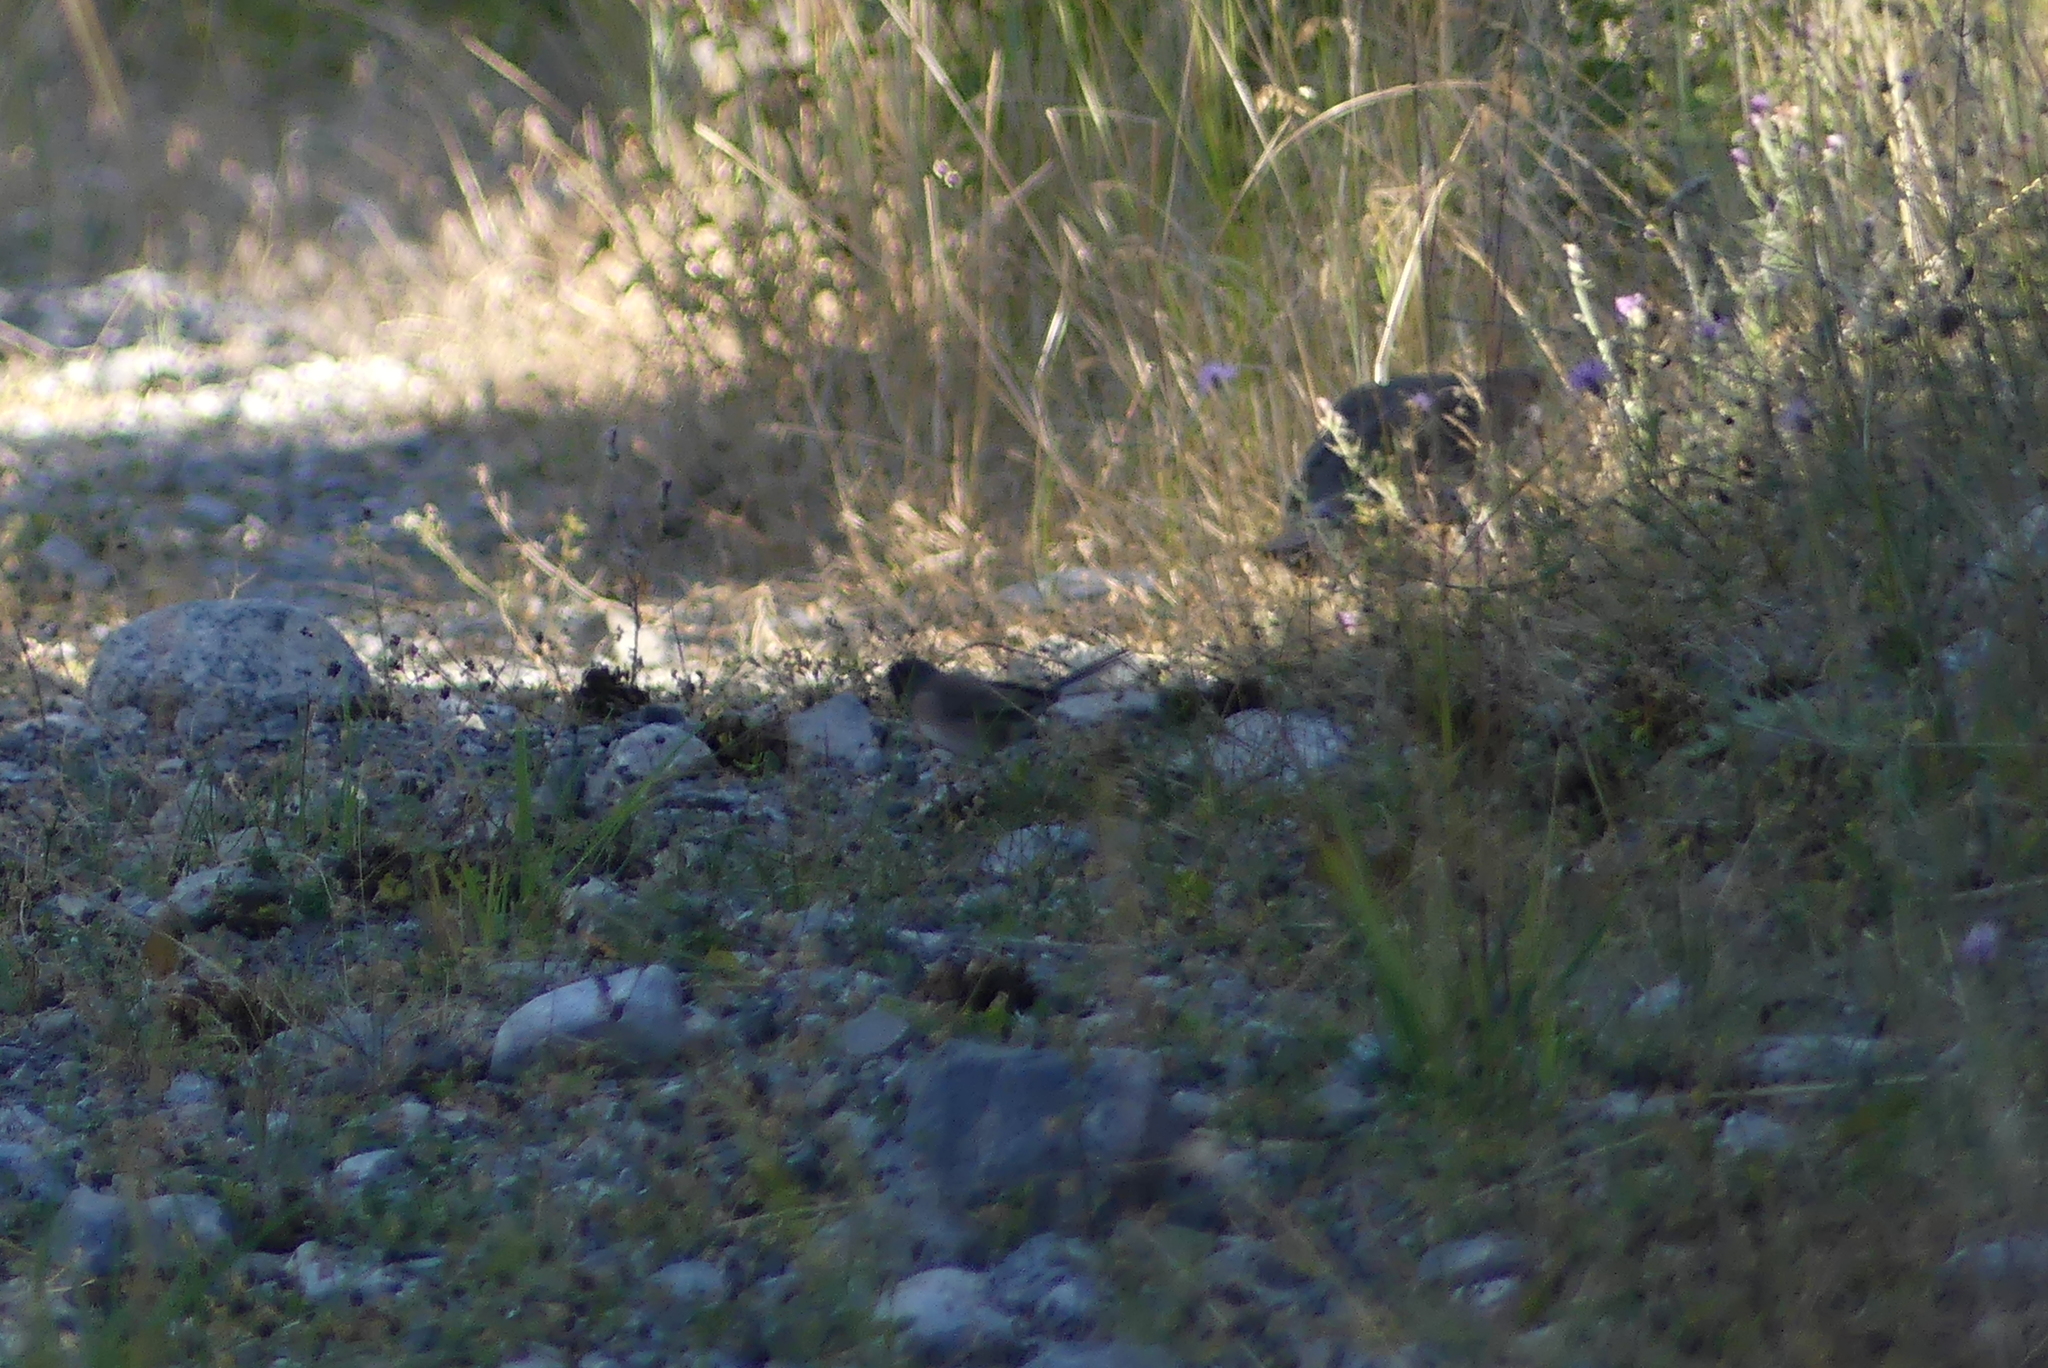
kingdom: Animalia
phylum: Chordata
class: Aves
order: Passeriformes
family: Passerellidae
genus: Junco
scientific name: Junco hyemalis
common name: Dark-eyed junco
